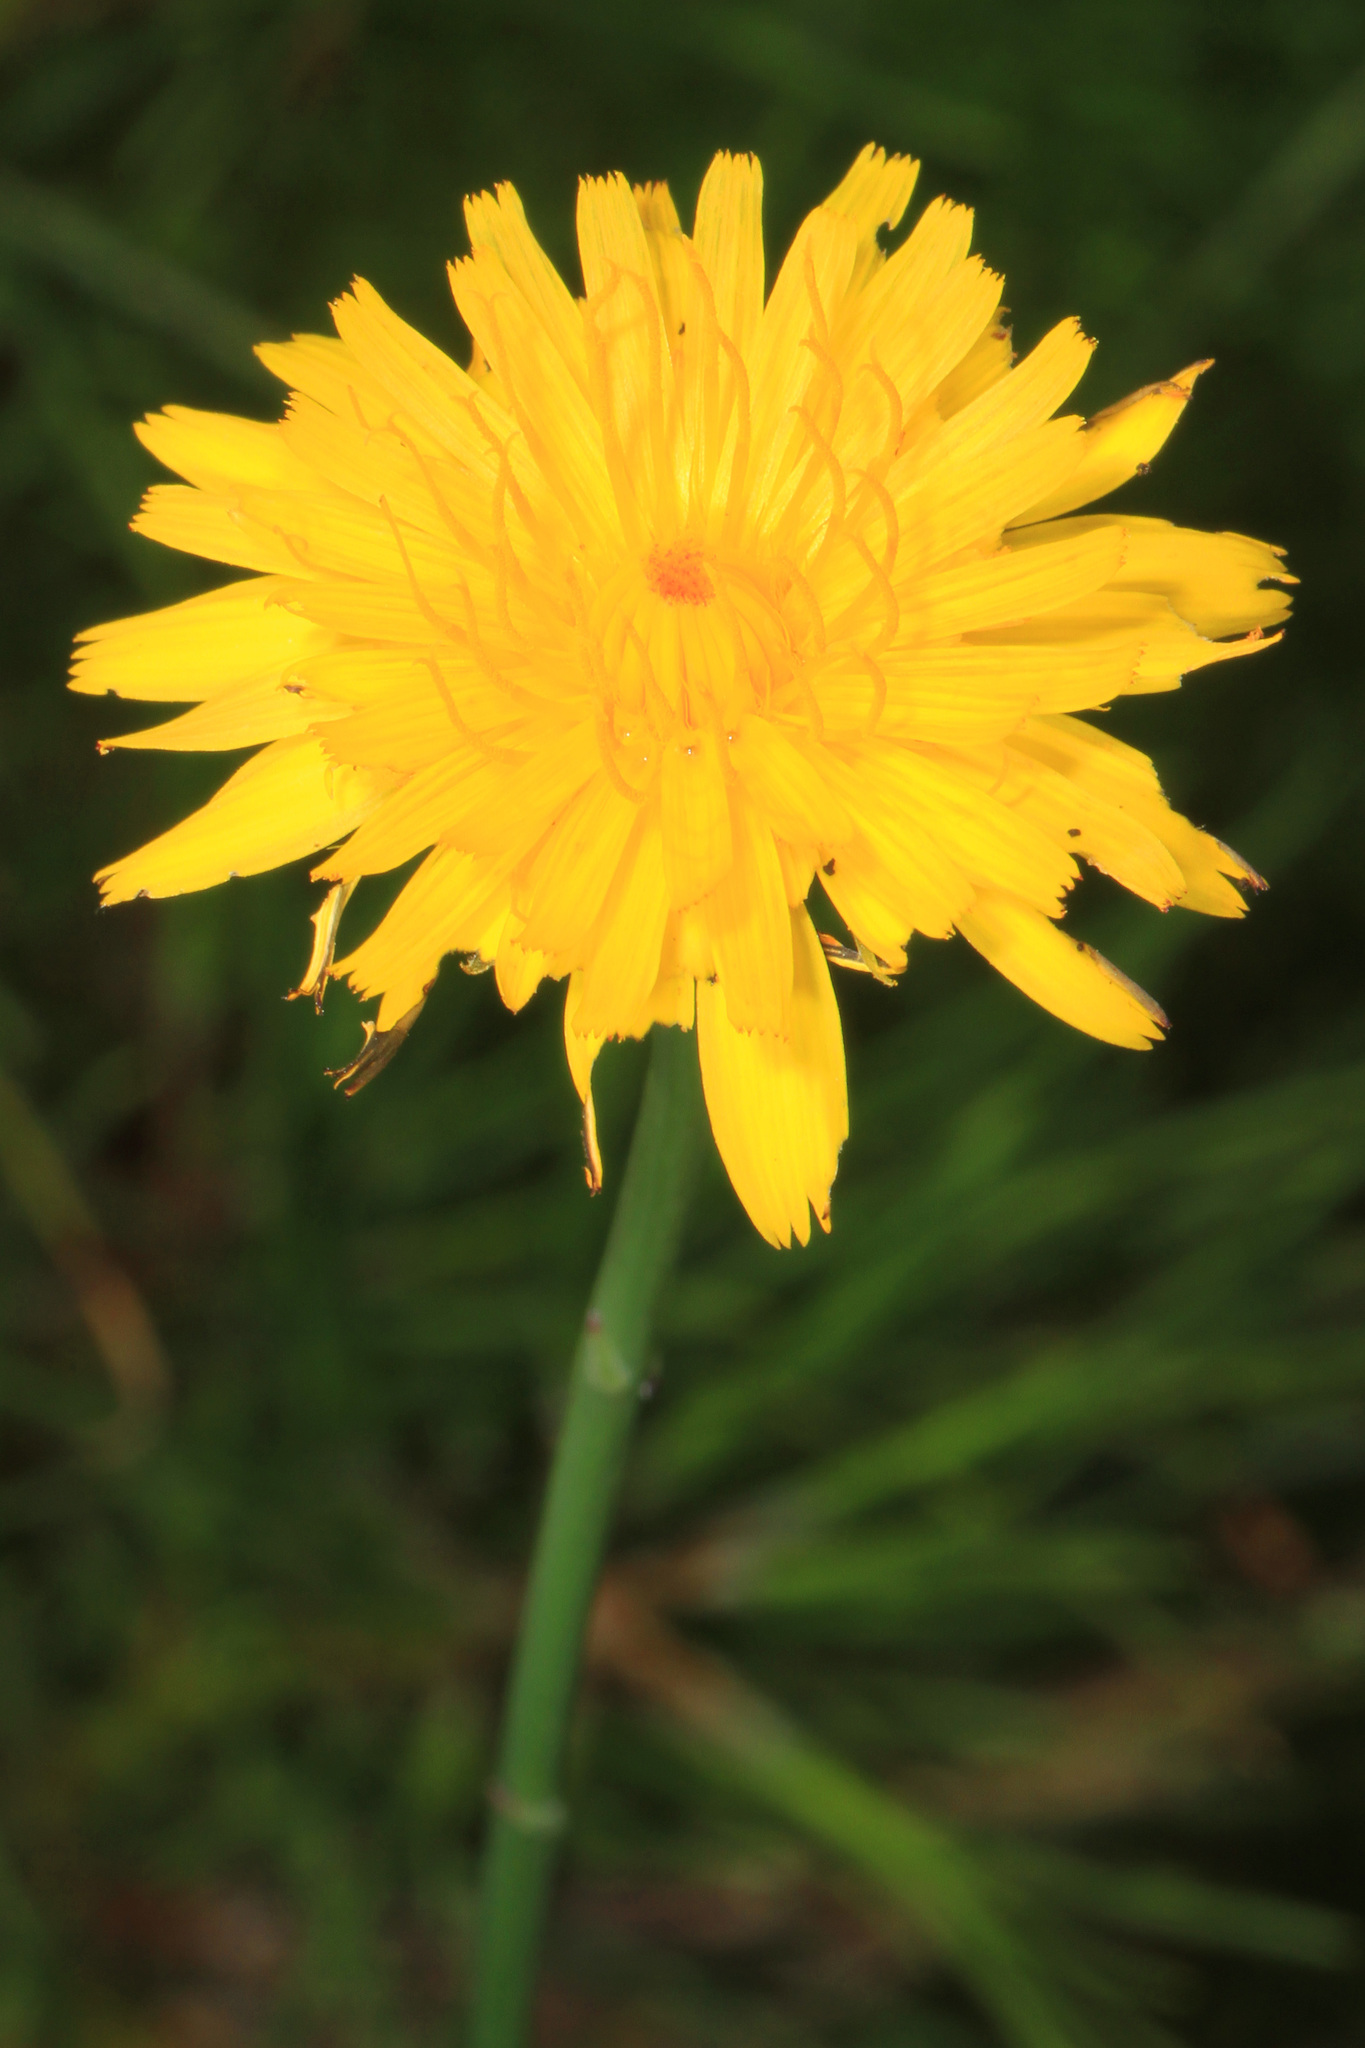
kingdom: Plantae
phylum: Tracheophyta
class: Magnoliopsida
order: Asterales
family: Asteraceae
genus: Hypochaeris
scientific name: Hypochaeris radicata
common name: Flatweed
